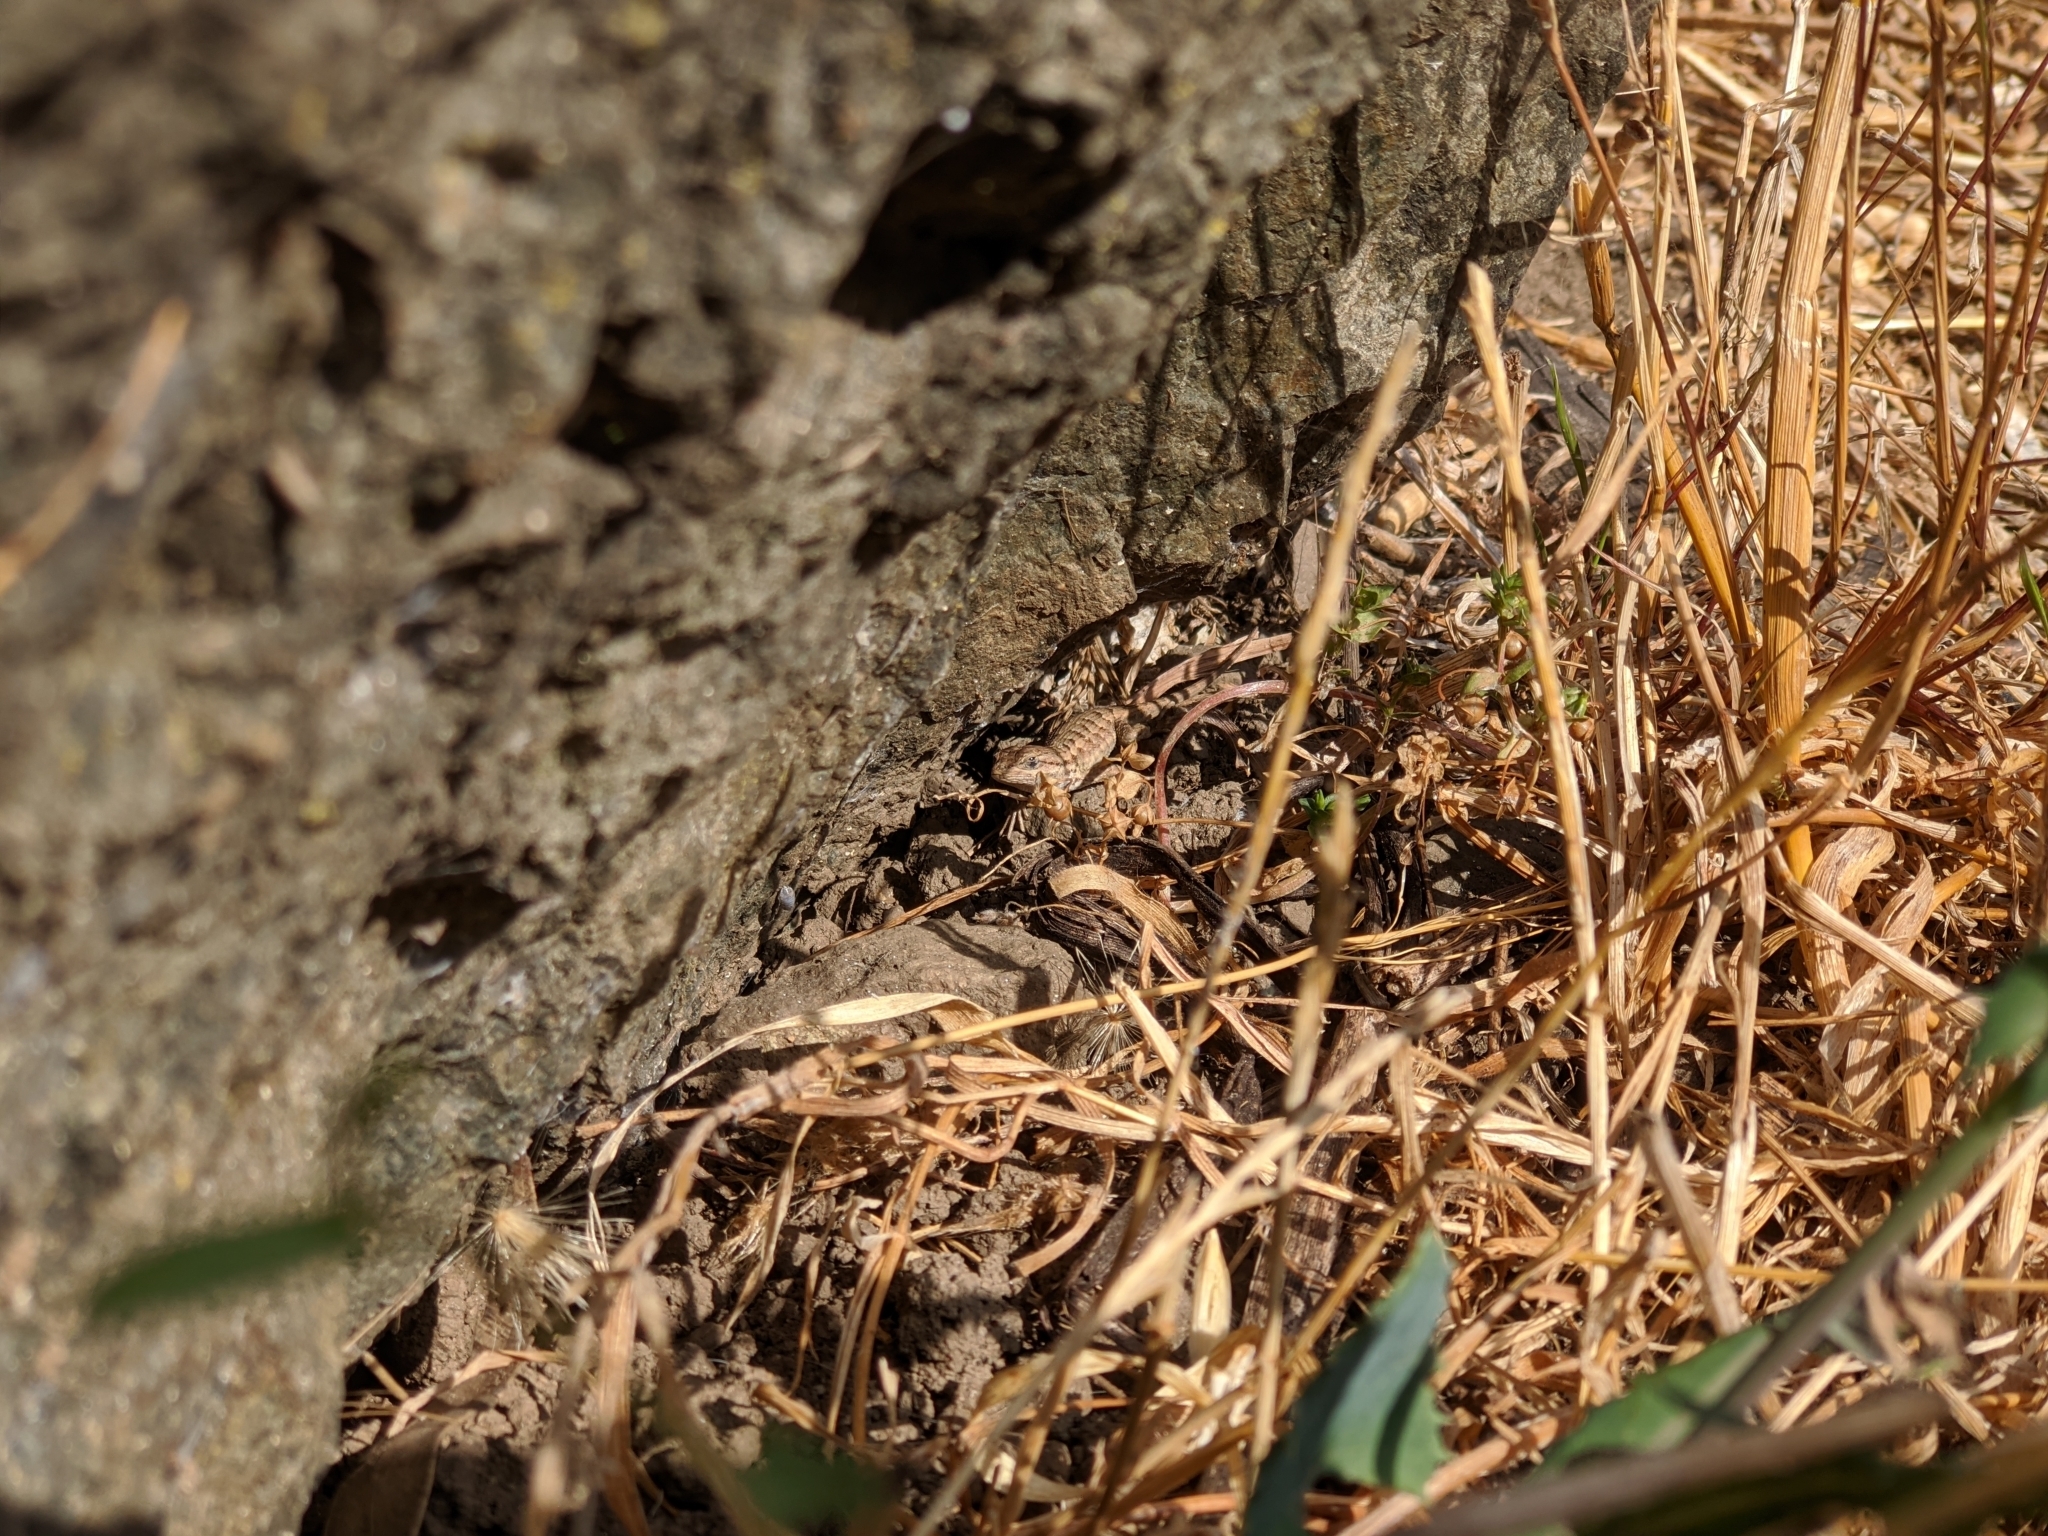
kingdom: Animalia
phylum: Chordata
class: Squamata
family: Phrynosomatidae
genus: Sceloporus
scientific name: Sceloporus occidentalis
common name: Western fence lizard
